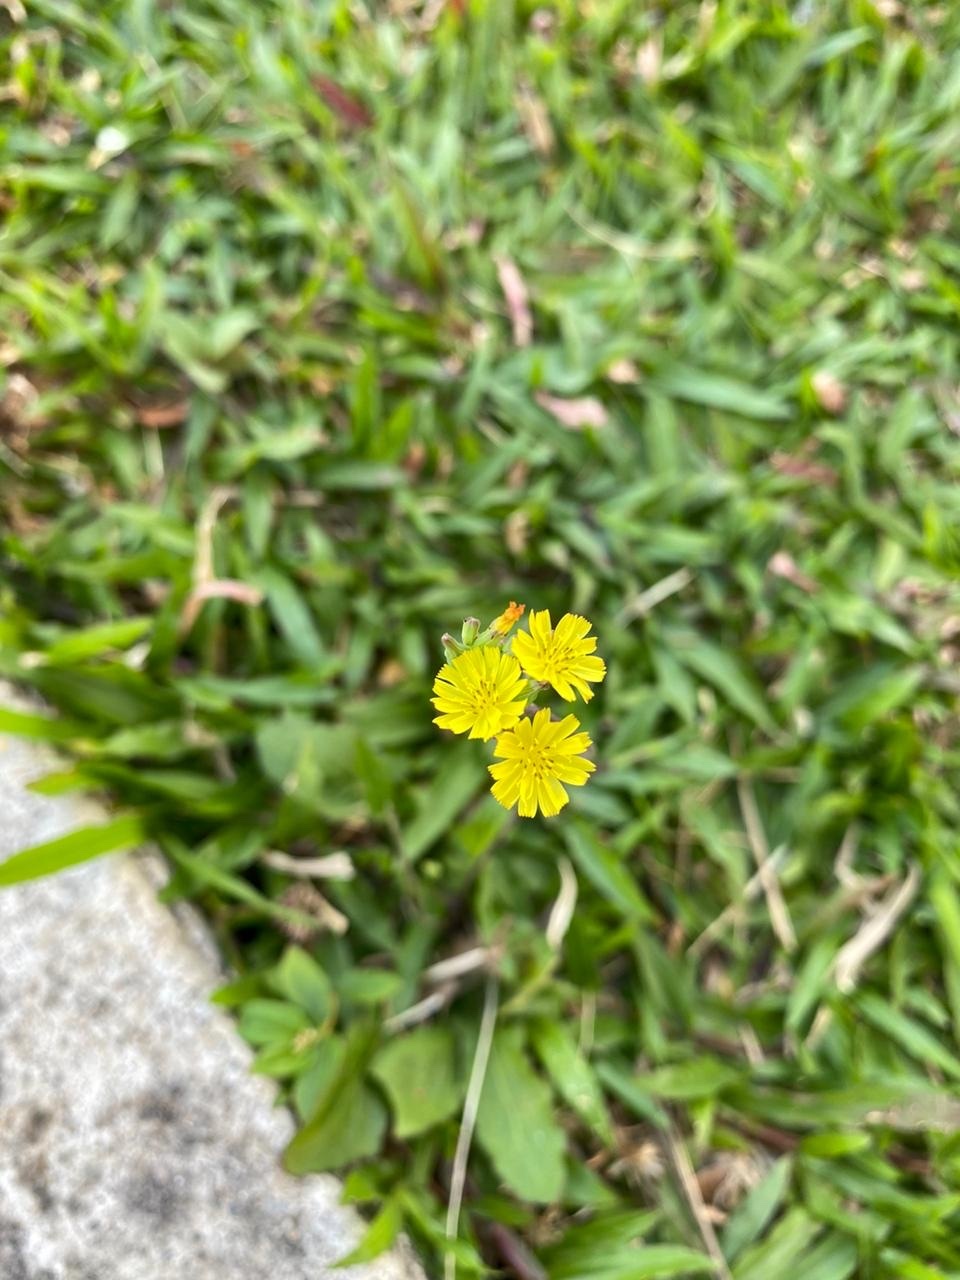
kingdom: Plantae
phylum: Tracheophyta
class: Magnoliopsida
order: Asterales
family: Asteraceae
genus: Youngia
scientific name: Youngia japonica
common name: Oriental false hawksbeard
